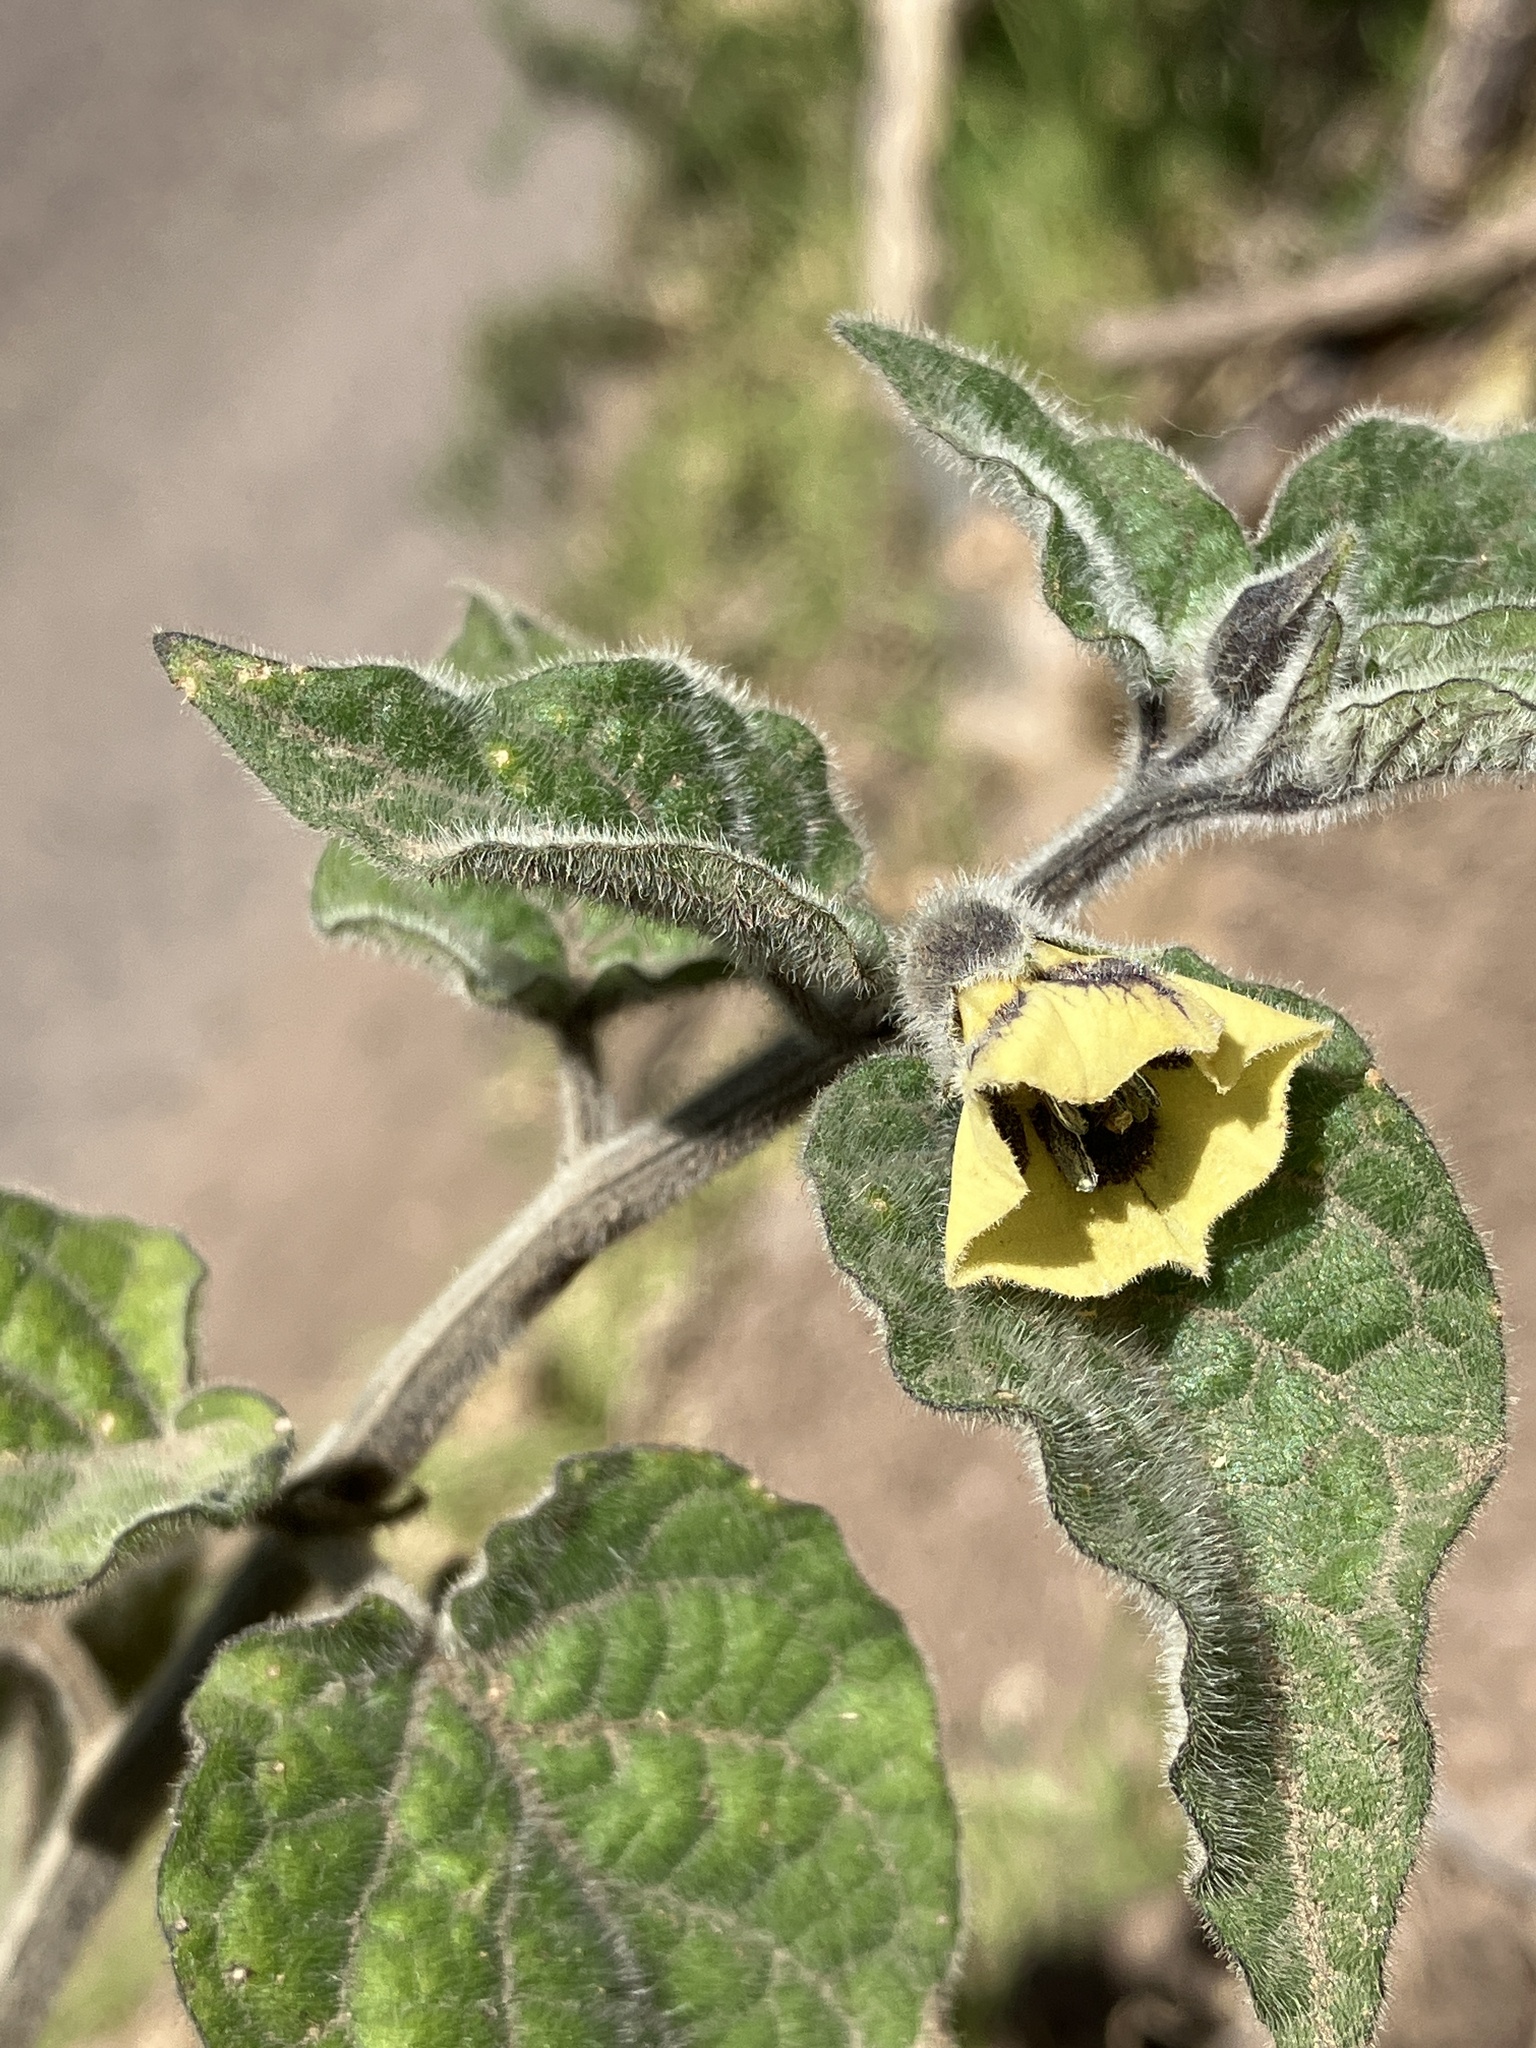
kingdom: Plantae
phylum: Tracheophyta
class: Magnoliopsida
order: Solanales
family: Solanaceae
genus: Physalis
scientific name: Physalis peruviana
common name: Cape-gooseberry
